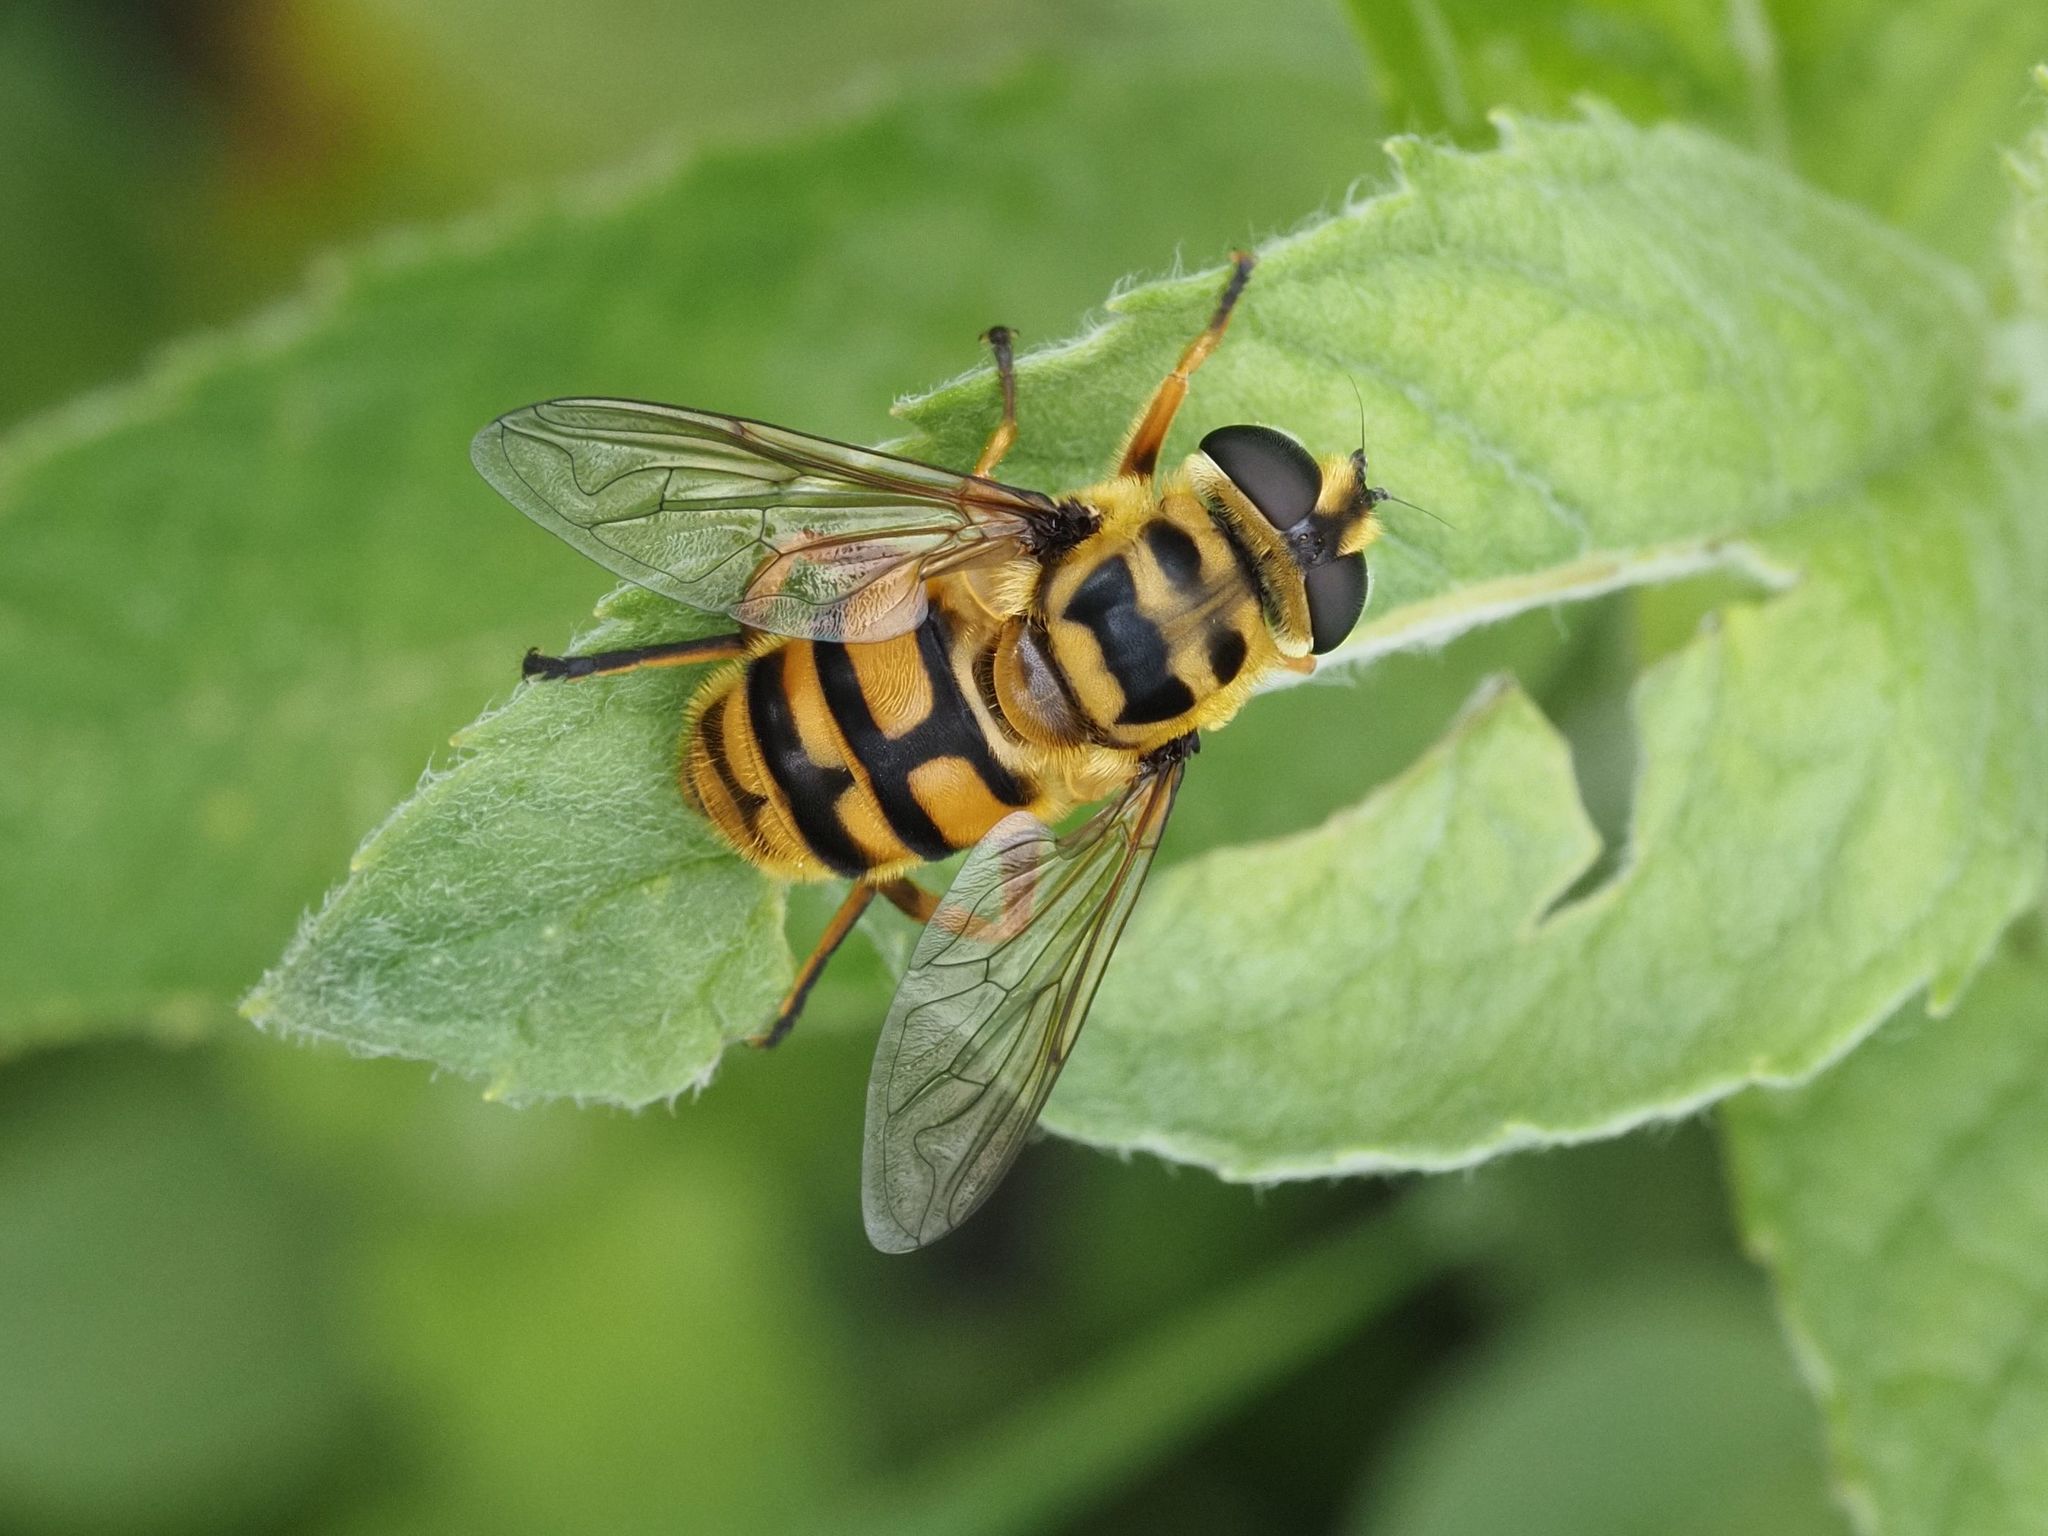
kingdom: Animalia
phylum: Arthropoda
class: Insecta
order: Diptera
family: Syrphidae
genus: Myathropa
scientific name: Myathropa florea
